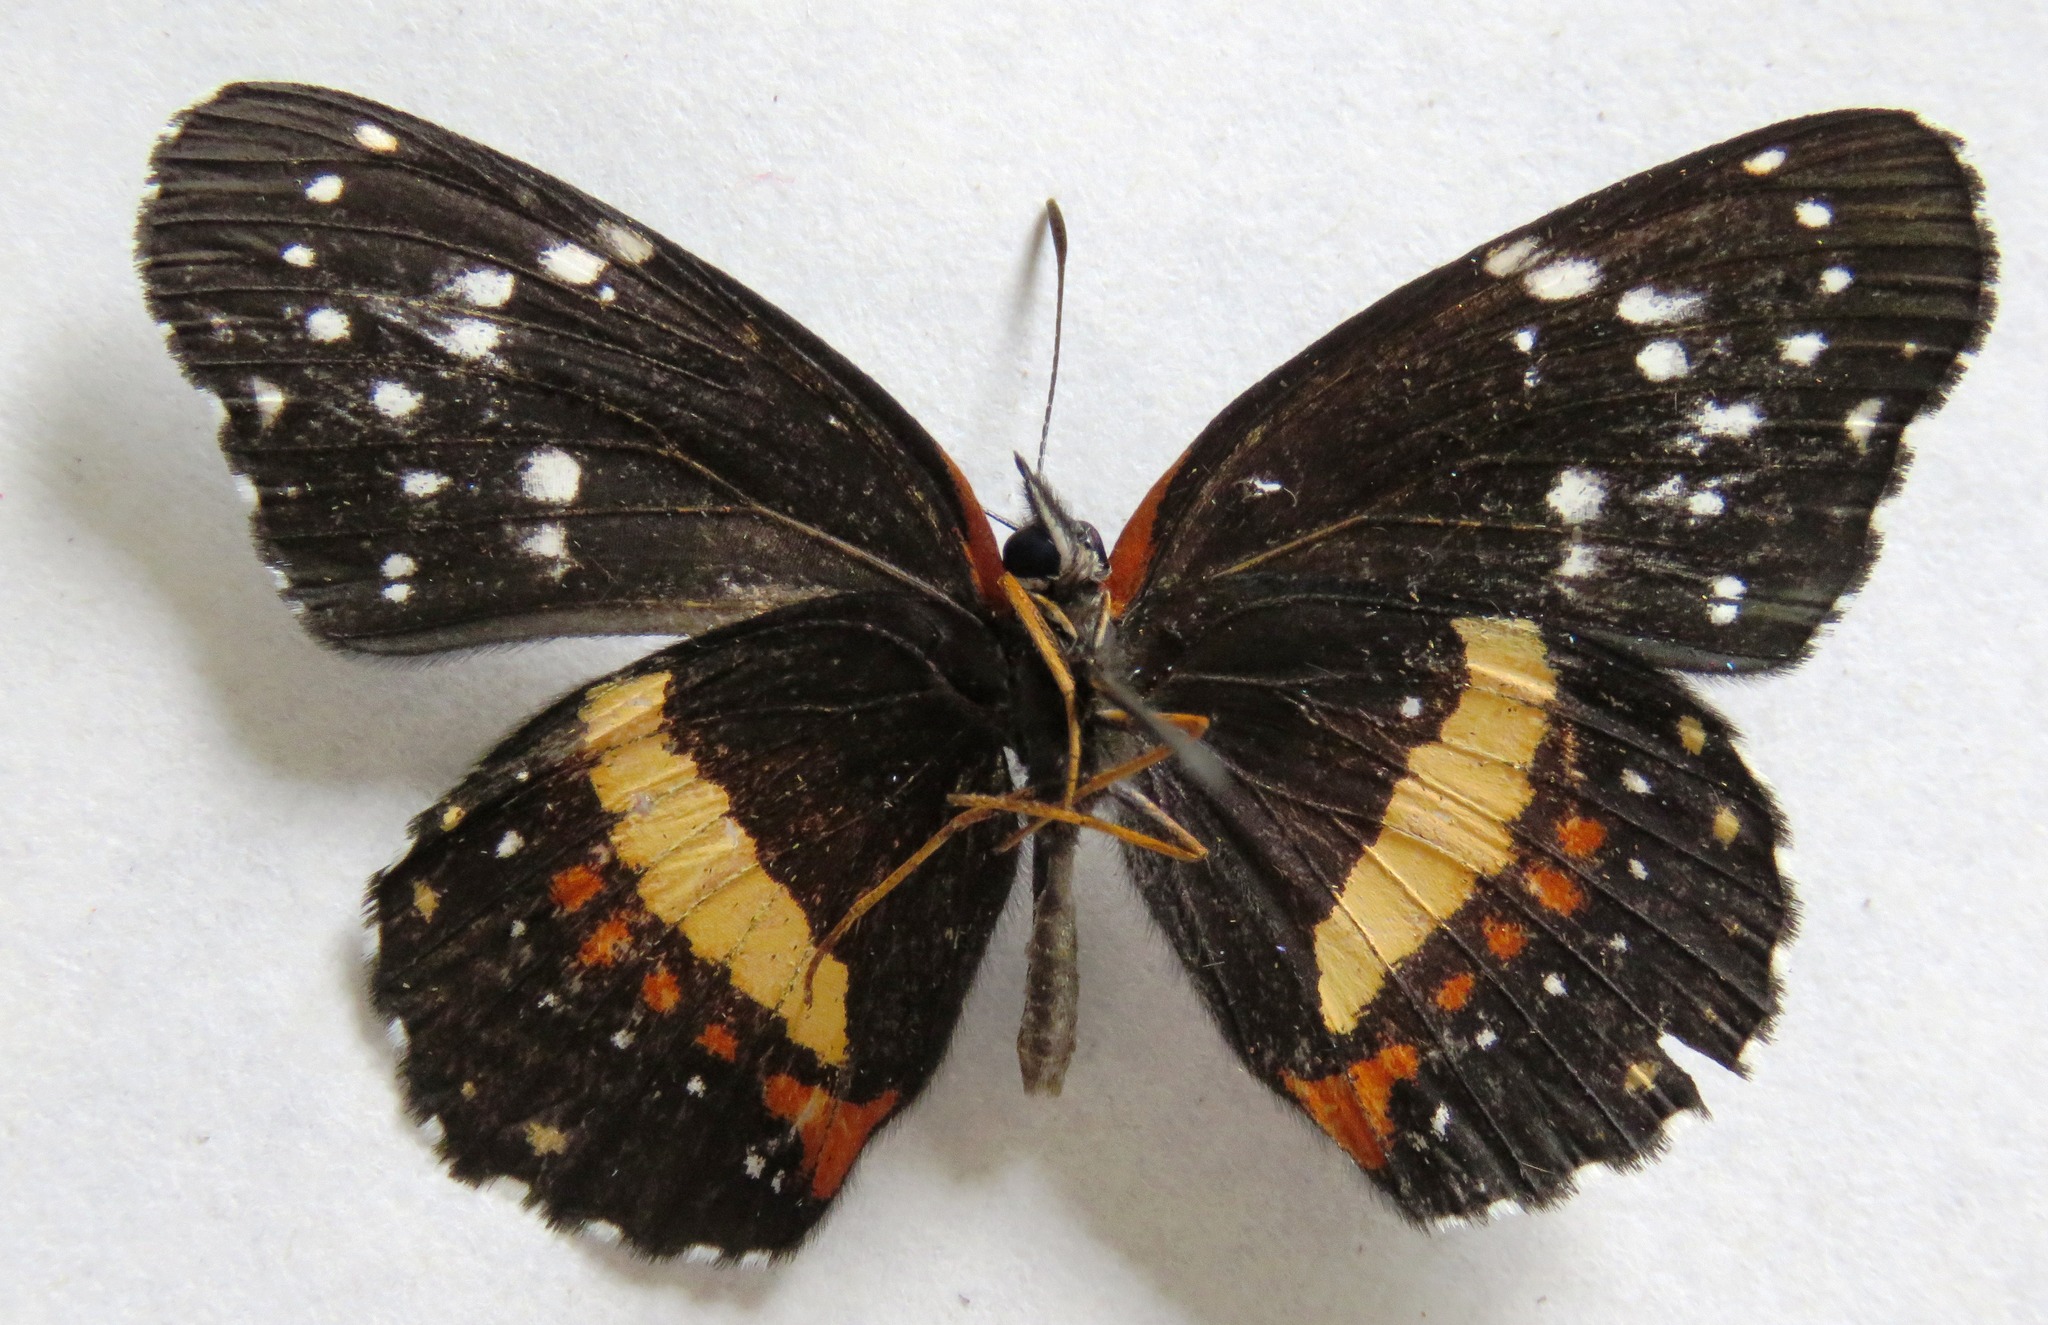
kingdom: Animalia
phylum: Arthropoda
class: Insecta
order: Lepidoptera
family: Nymphalidae
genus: Chlosyne
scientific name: Chlosyne lacinia
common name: Bordered patch
